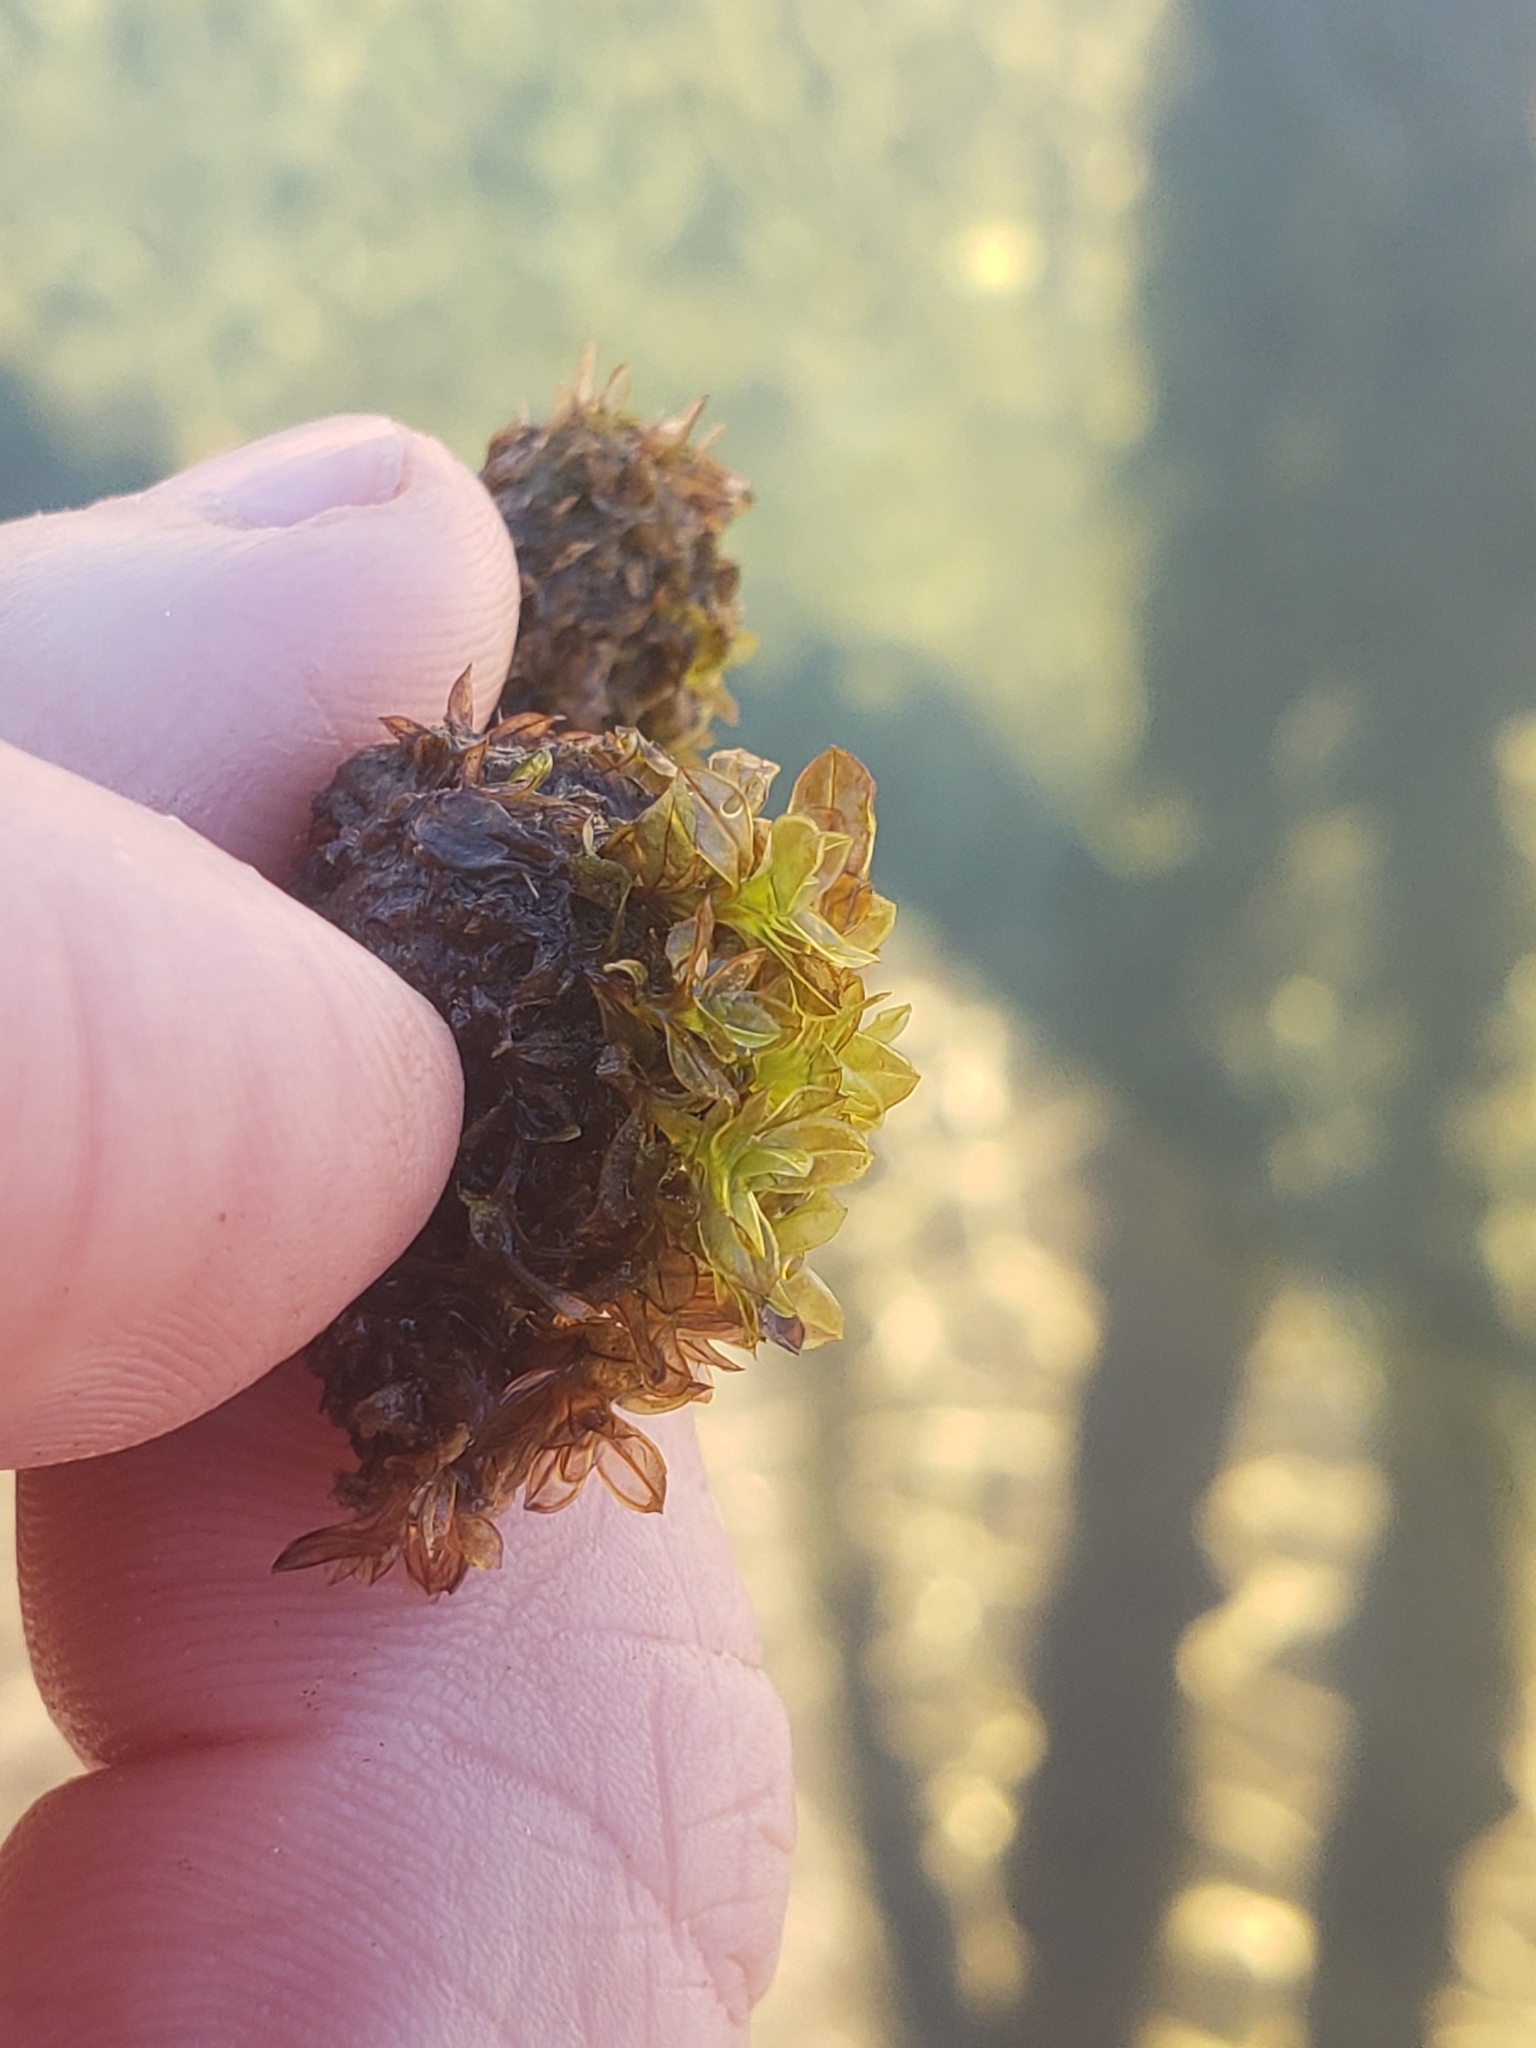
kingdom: Plantae
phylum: Bryophyta
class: Bryopsida
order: Pottiales
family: Pottiaceae
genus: Crumia
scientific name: Crumia latifolia
